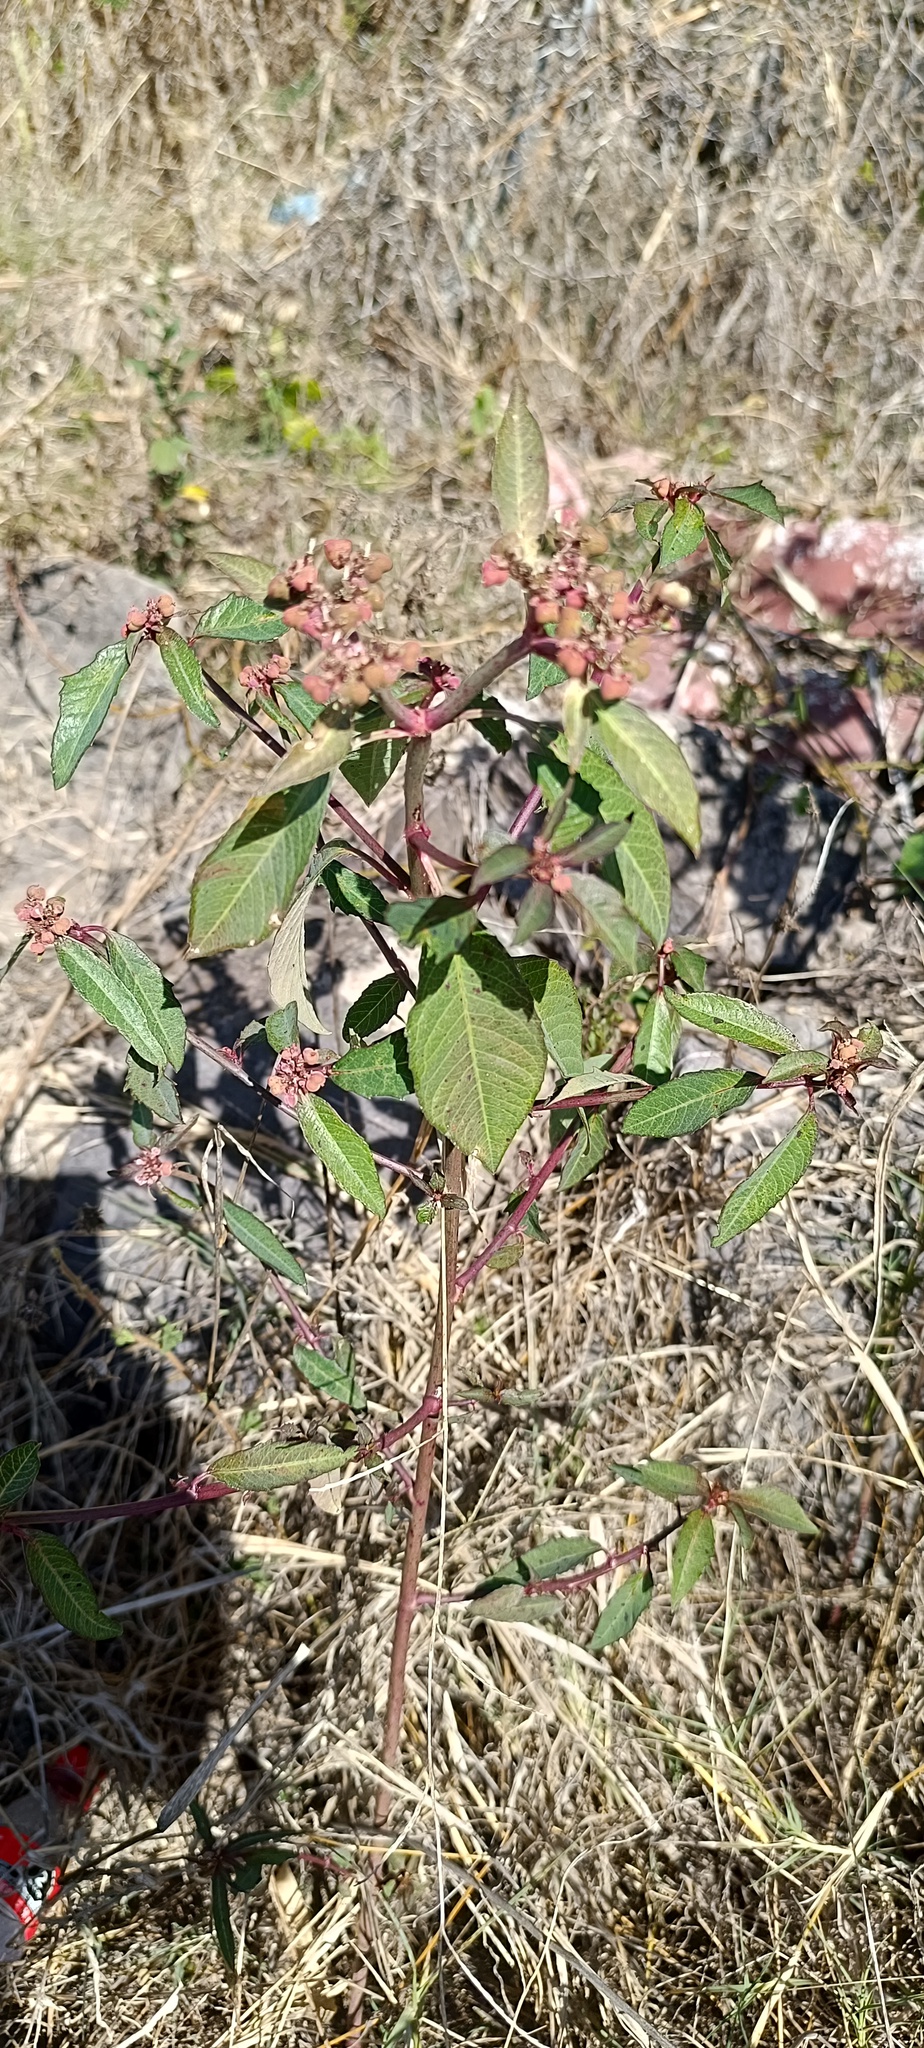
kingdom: Plantae
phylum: Tracheophyta
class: Magnoliopsida
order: Malpighiales
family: Euphorbiaceae
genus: Euphorbia
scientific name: Euphorbia heterophylla
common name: Mexican fireplant
